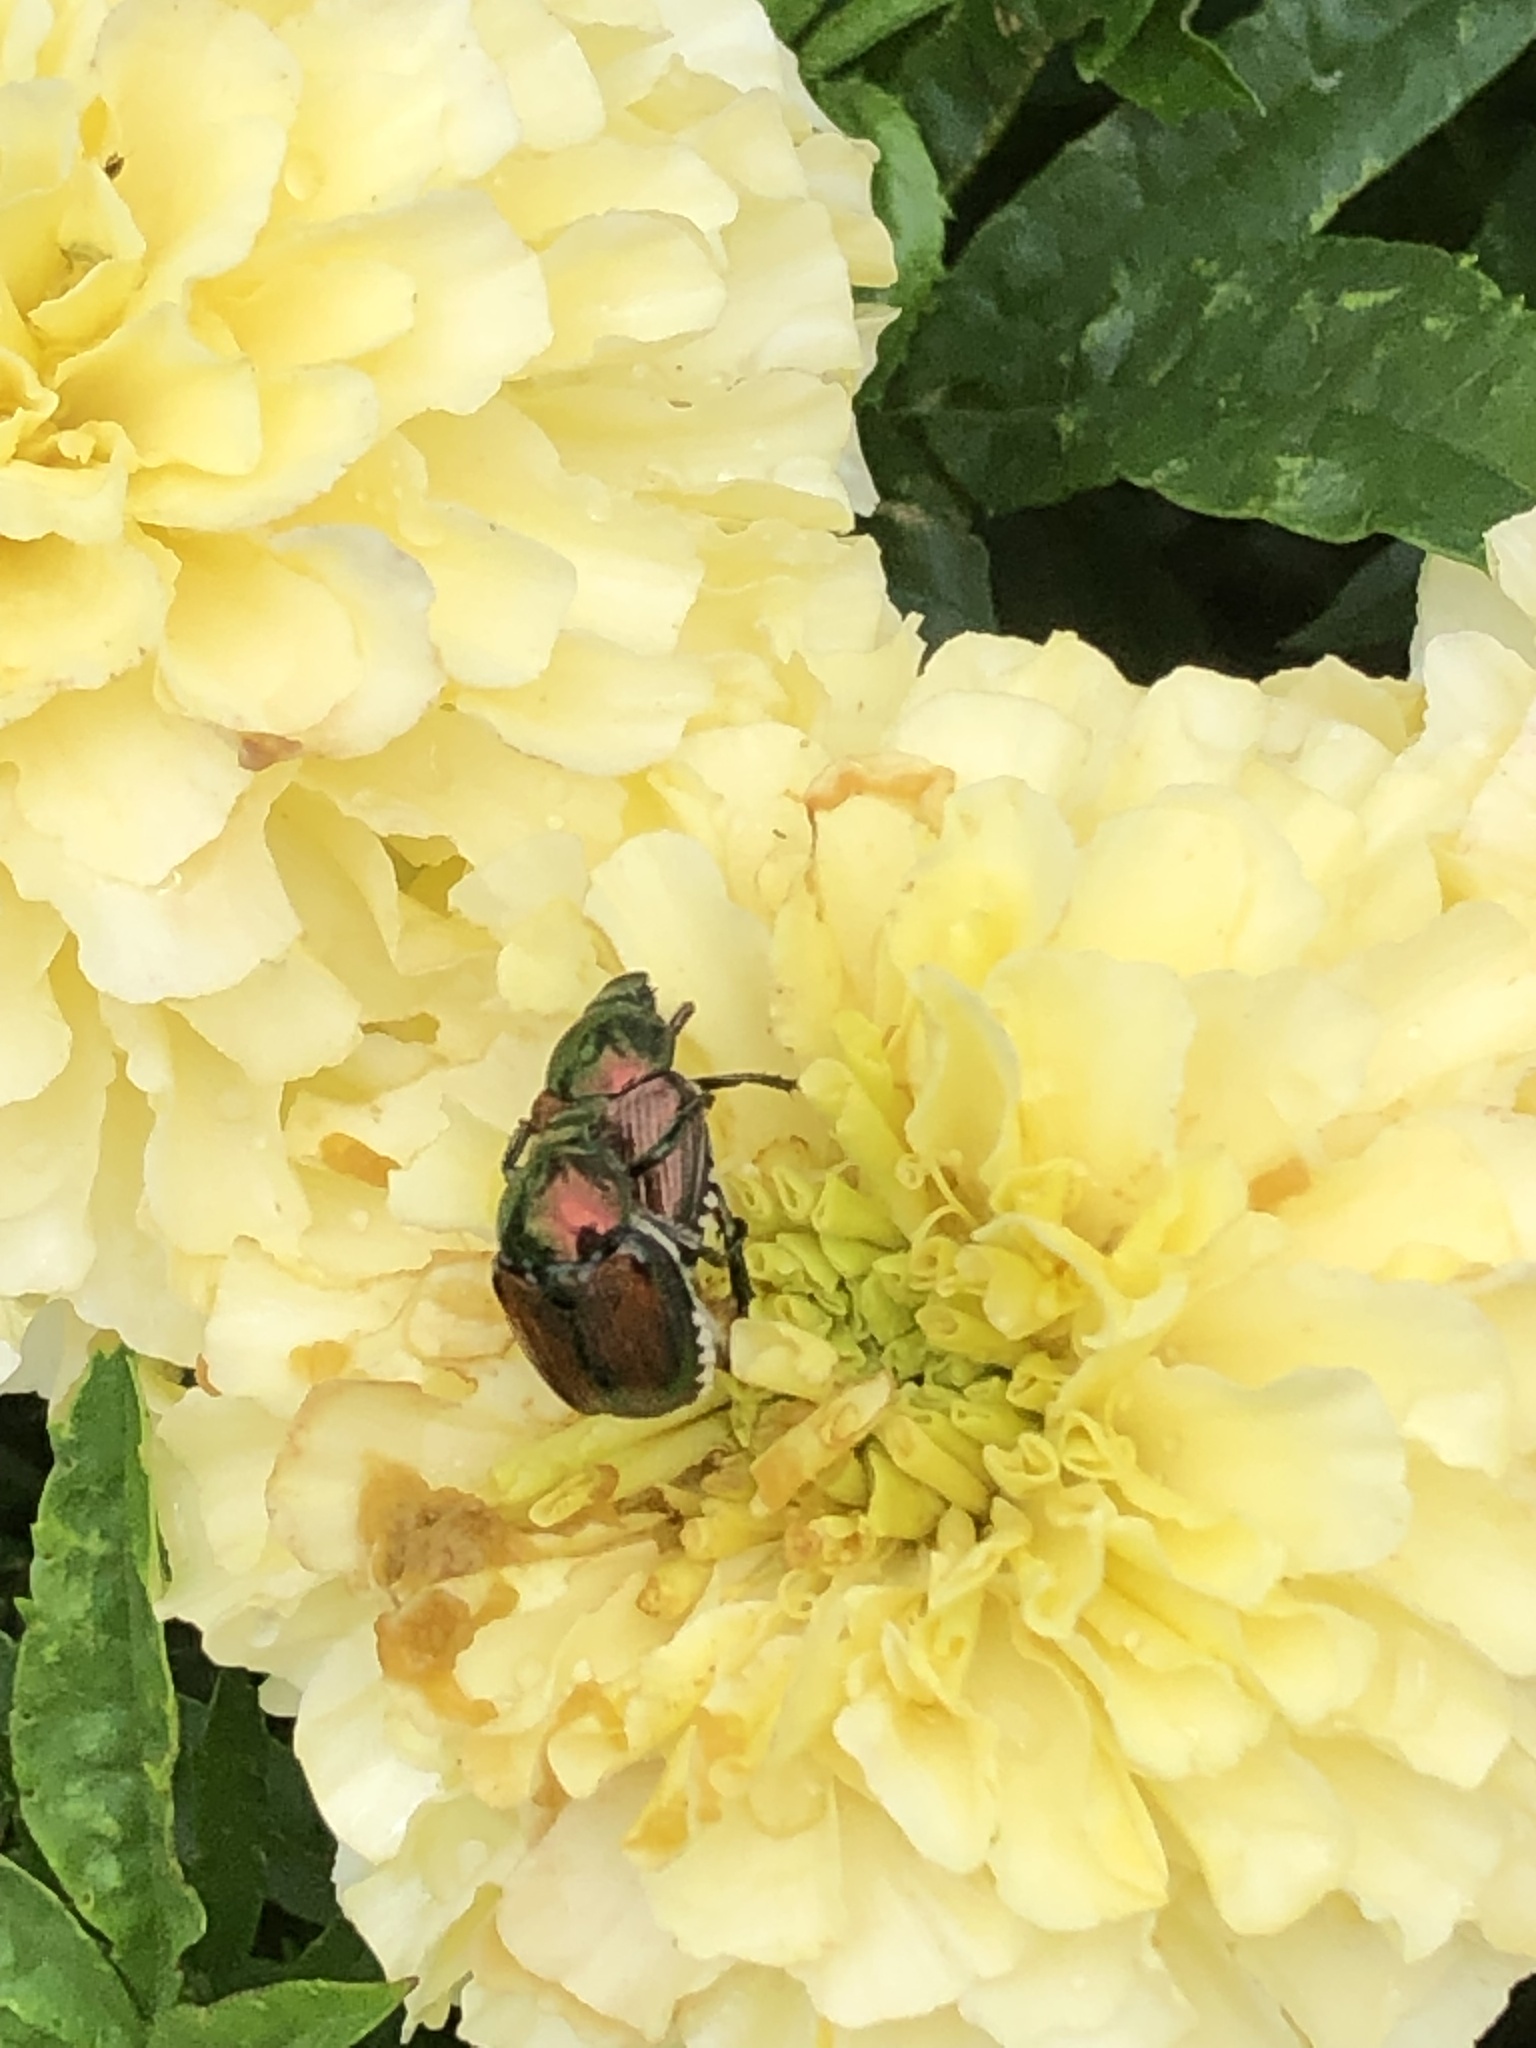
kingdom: Animalia
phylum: Arthropoda
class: Insecta
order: Coleoptera
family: Scarabaeidae
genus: Popillia
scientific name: Popillia japonica
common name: Japanese beetle
